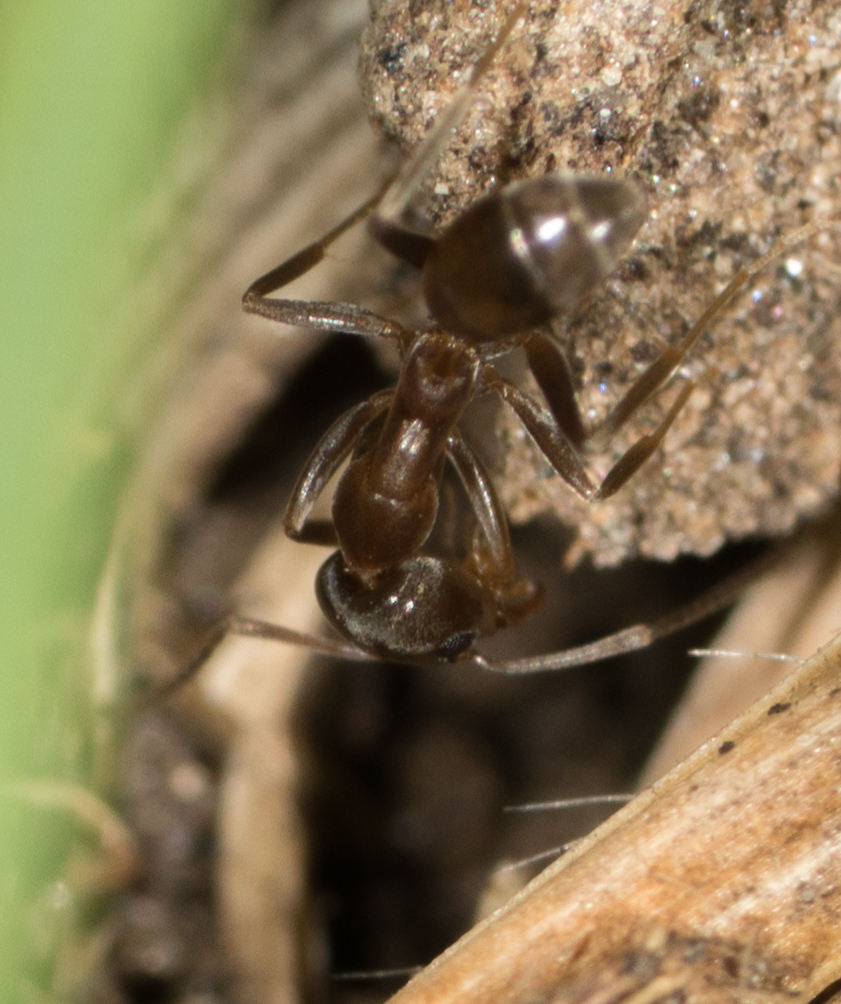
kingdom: Animalia
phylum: Arthropoda
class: Insecta
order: Hymenoptera
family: Formicidae
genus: Linepithema
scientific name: Linepithema humile
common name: Argentine ant
